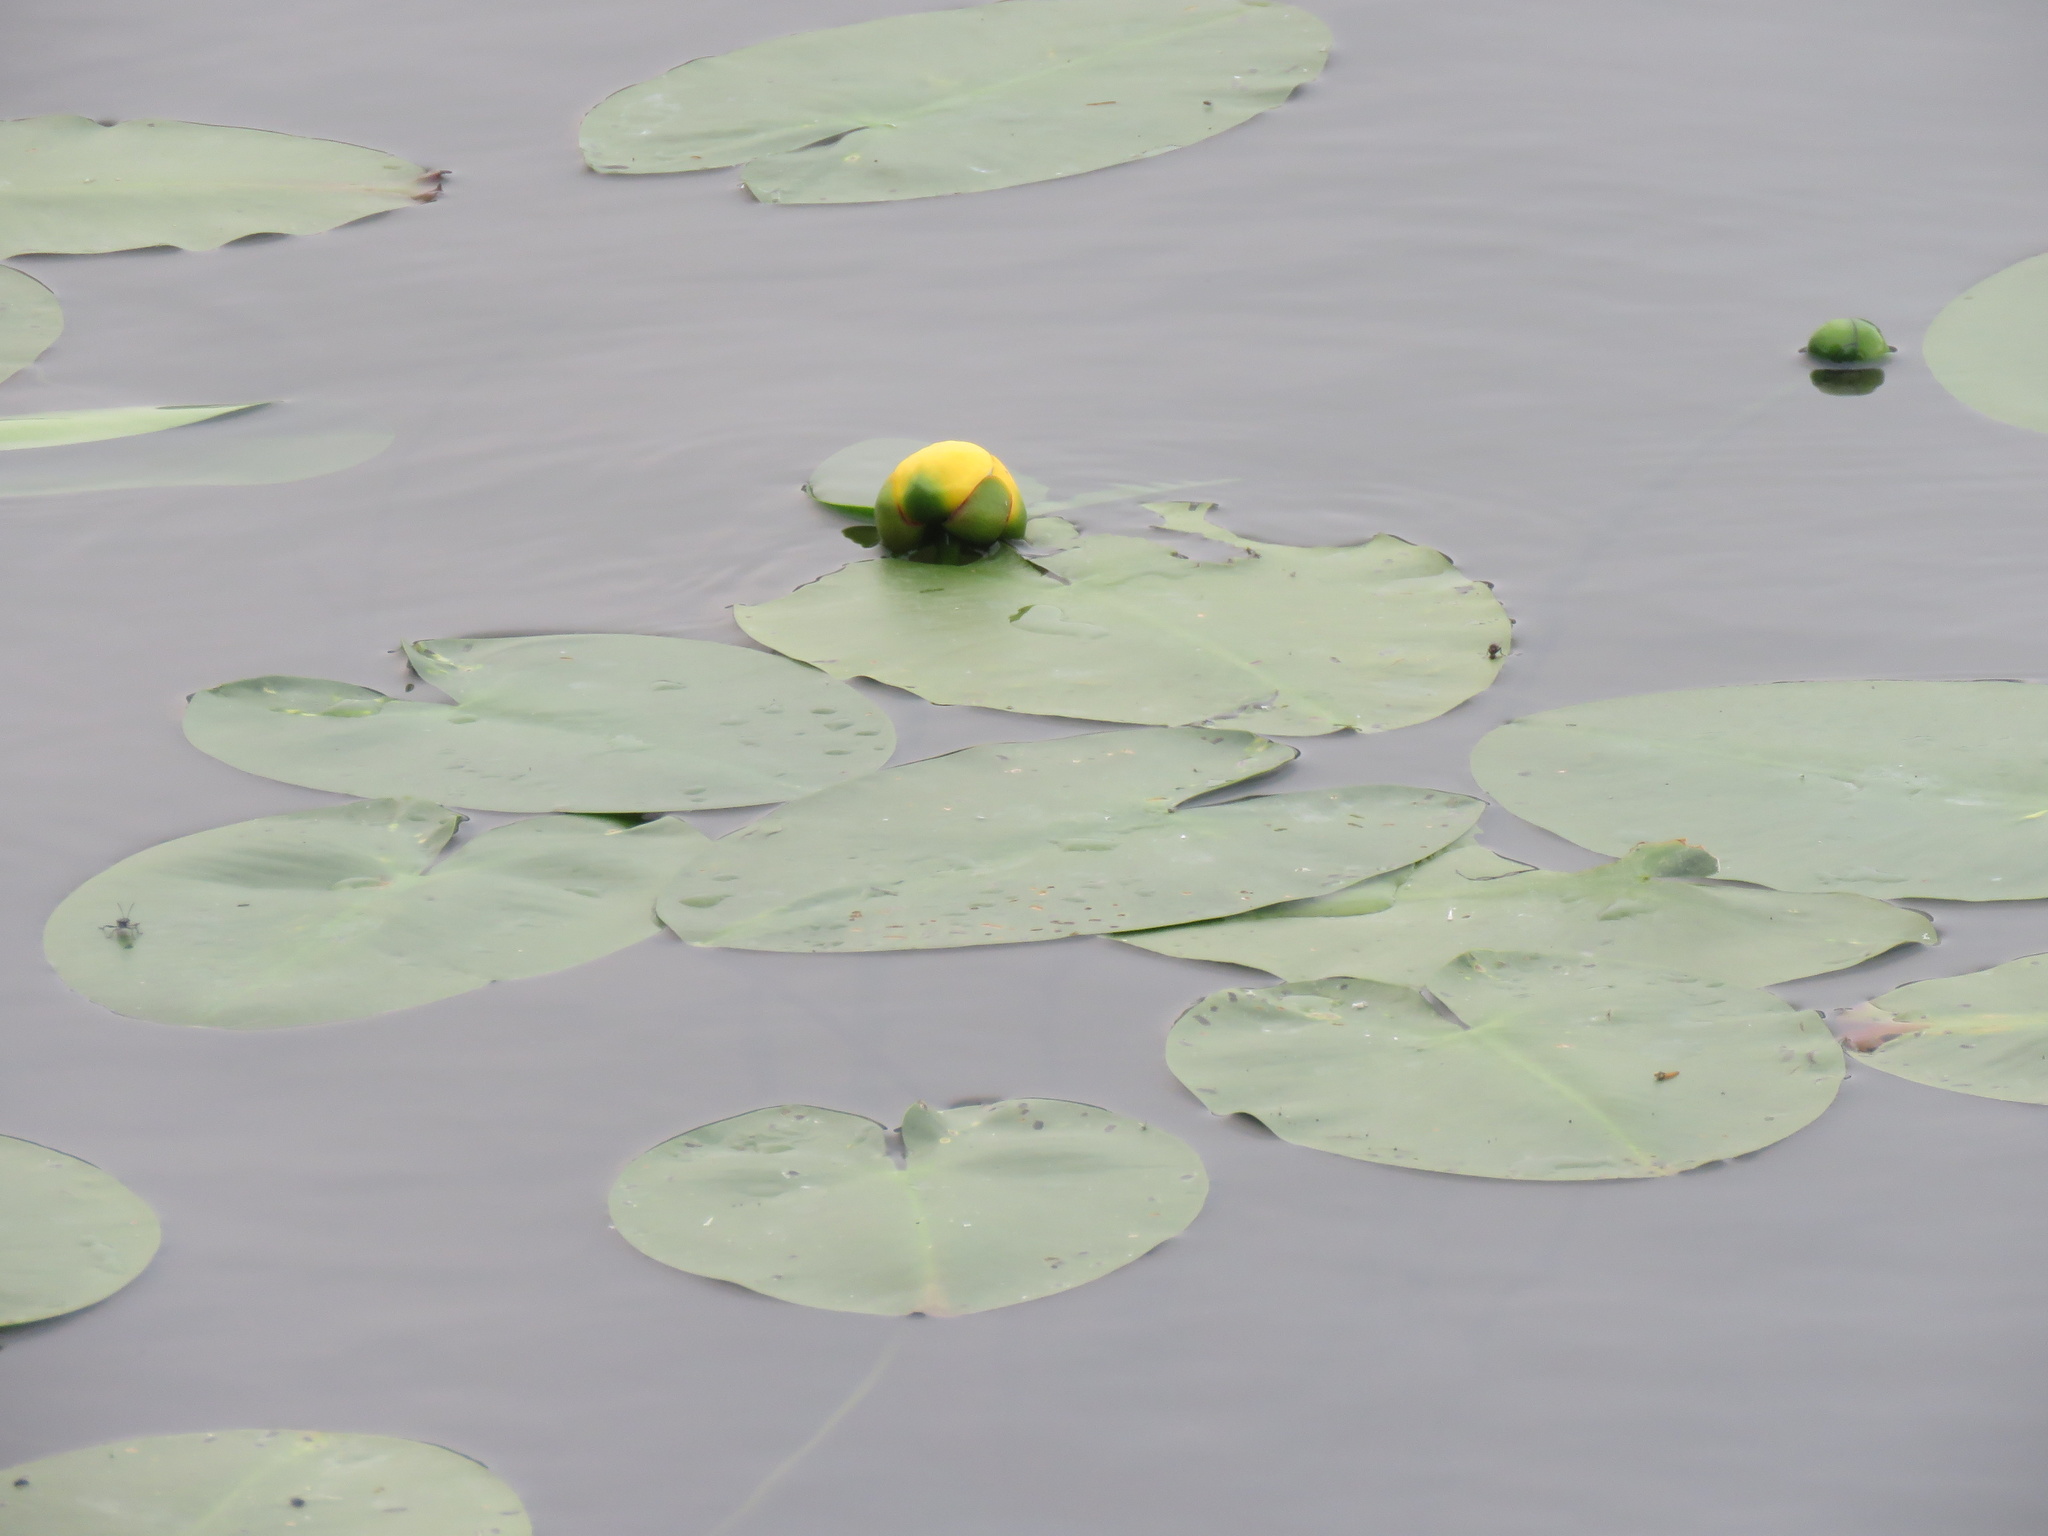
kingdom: Plantae
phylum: Tracheophyta
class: Magnoliopsida
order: Nymphaeales
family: Nymphaeaceae
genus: Nuphar
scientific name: Nuphar polysepala
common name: Rocky mountain cow-lily
